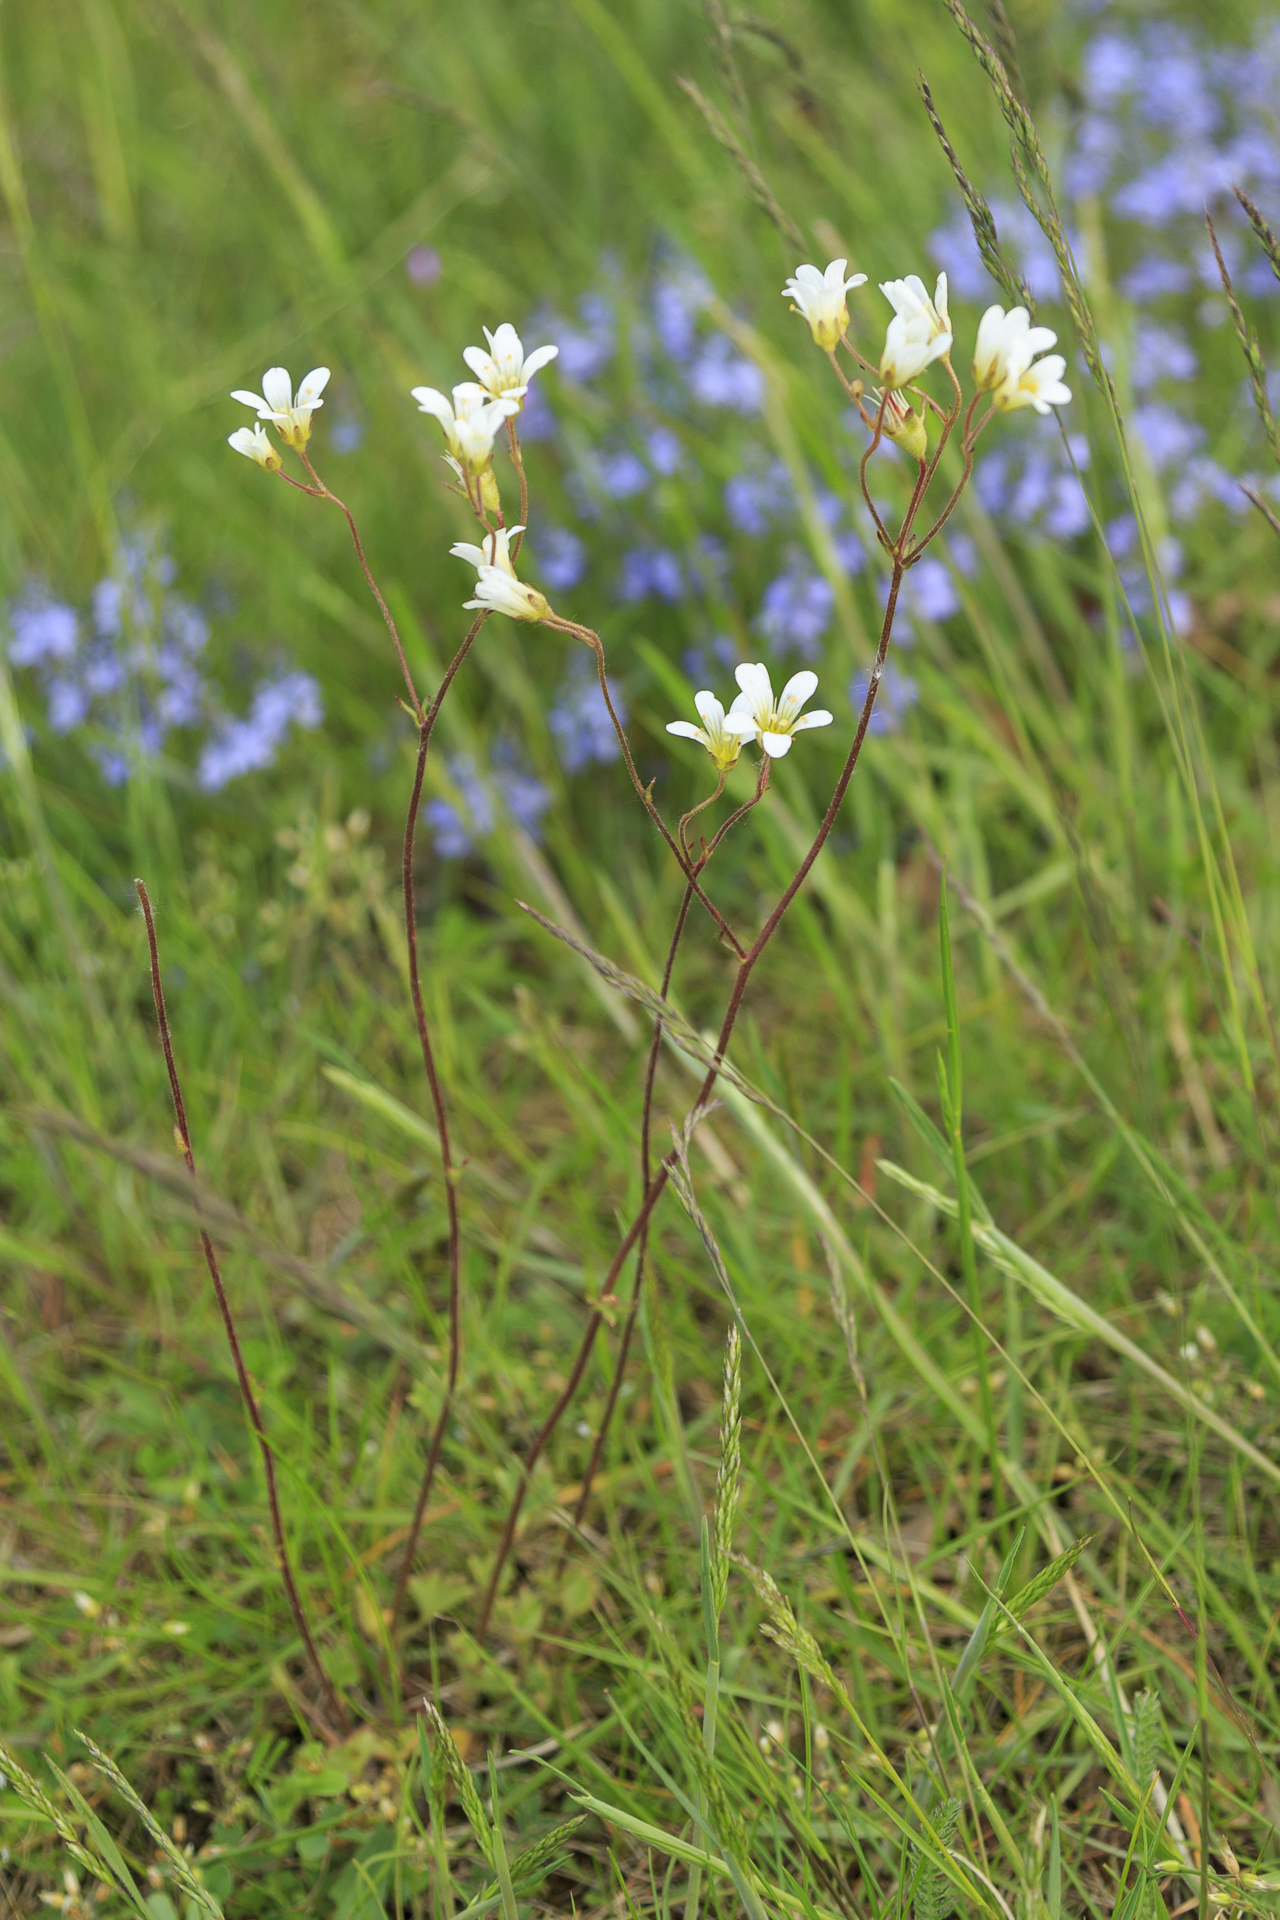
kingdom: Plantae
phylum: Tracheophyta
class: Magnoliopsida
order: Saxifragales
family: Saxifragaceae
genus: Saxifraga
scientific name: Saxifraga granulata
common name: Meadow saxifrage
